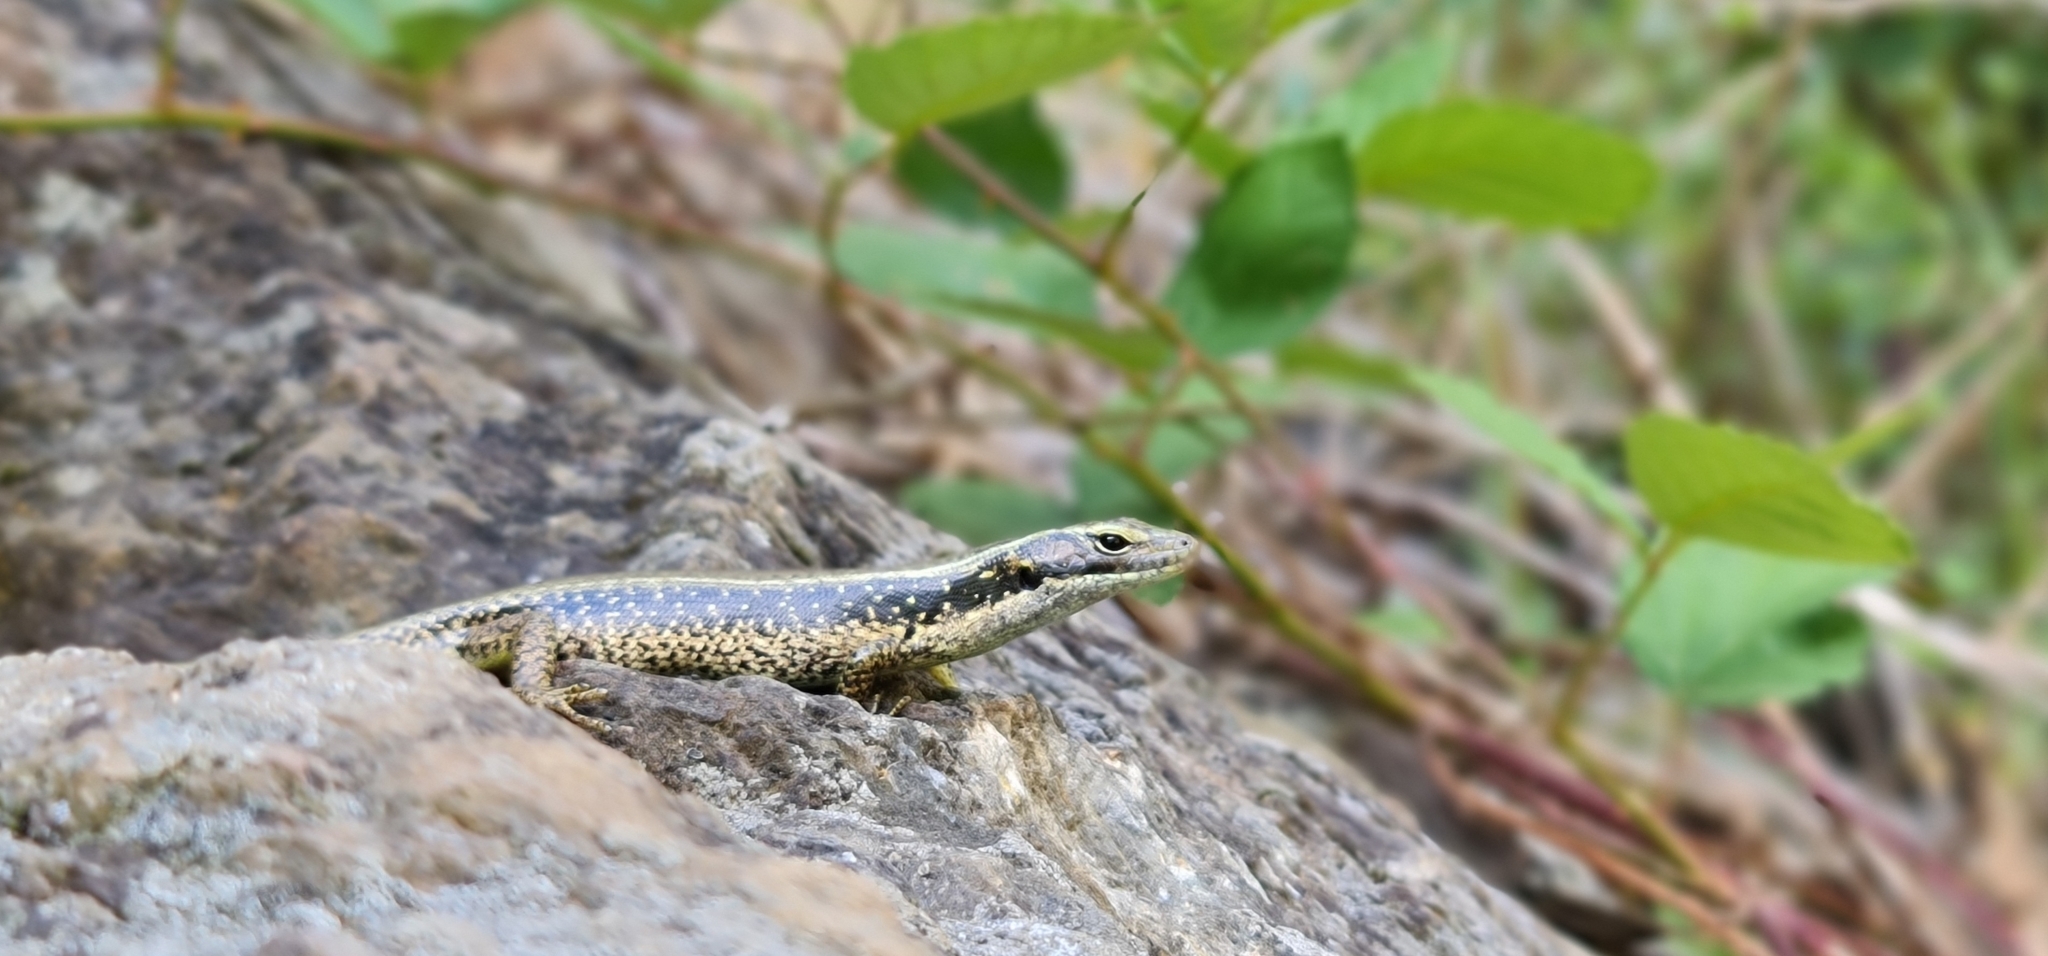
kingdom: Animalia
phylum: Chordata
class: Squamata
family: Scincidae
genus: Eulamprus
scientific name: Eulamprus quoyii
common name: Eastern water skink
